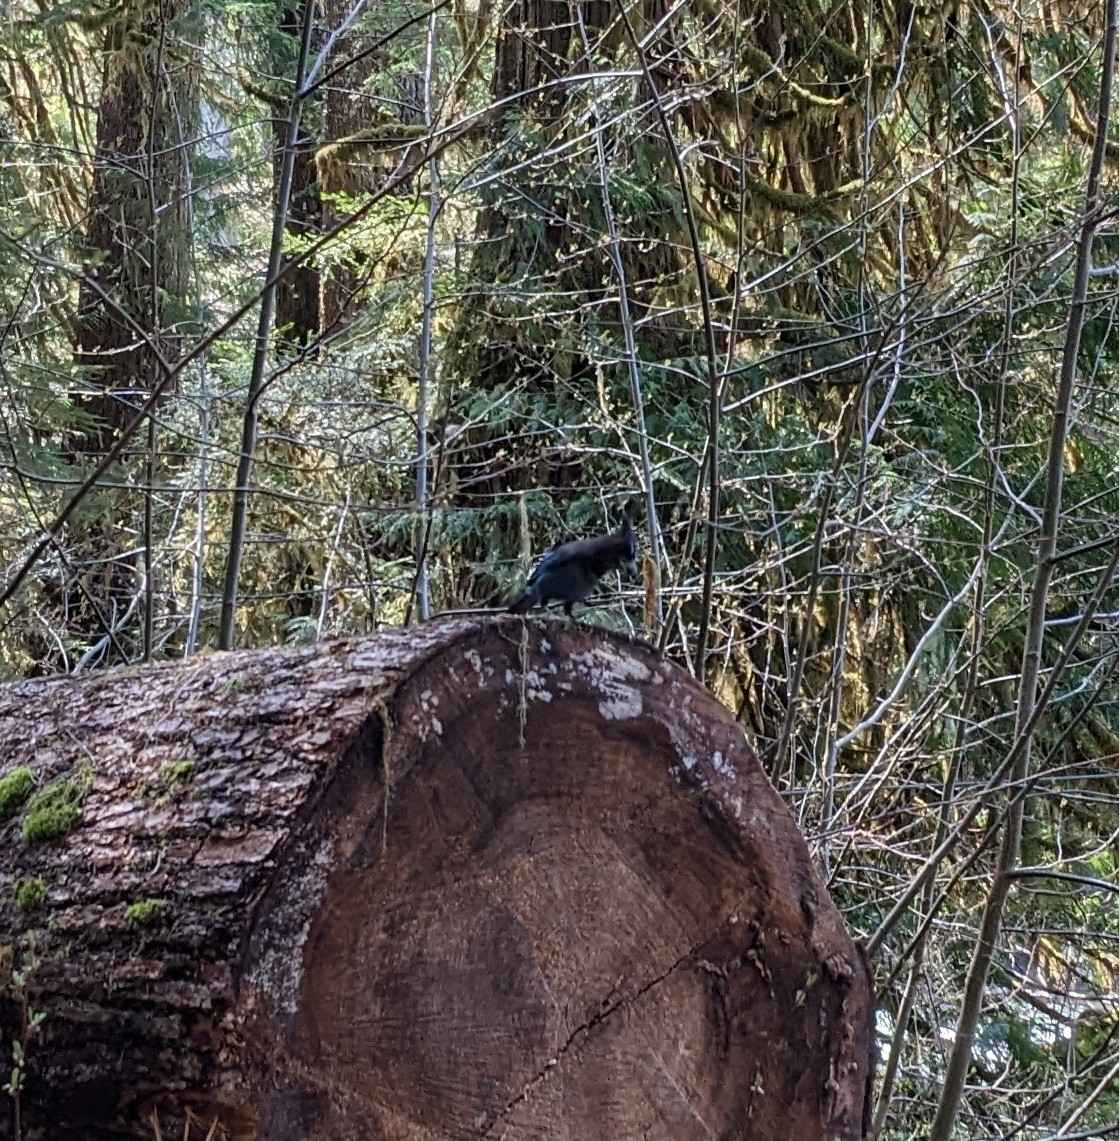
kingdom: Animalia
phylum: Chordata
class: Aves
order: Passeriformes
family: Corvidae
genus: Cyanocitta
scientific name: Cyanocitta stelleri
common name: Steller's jay
